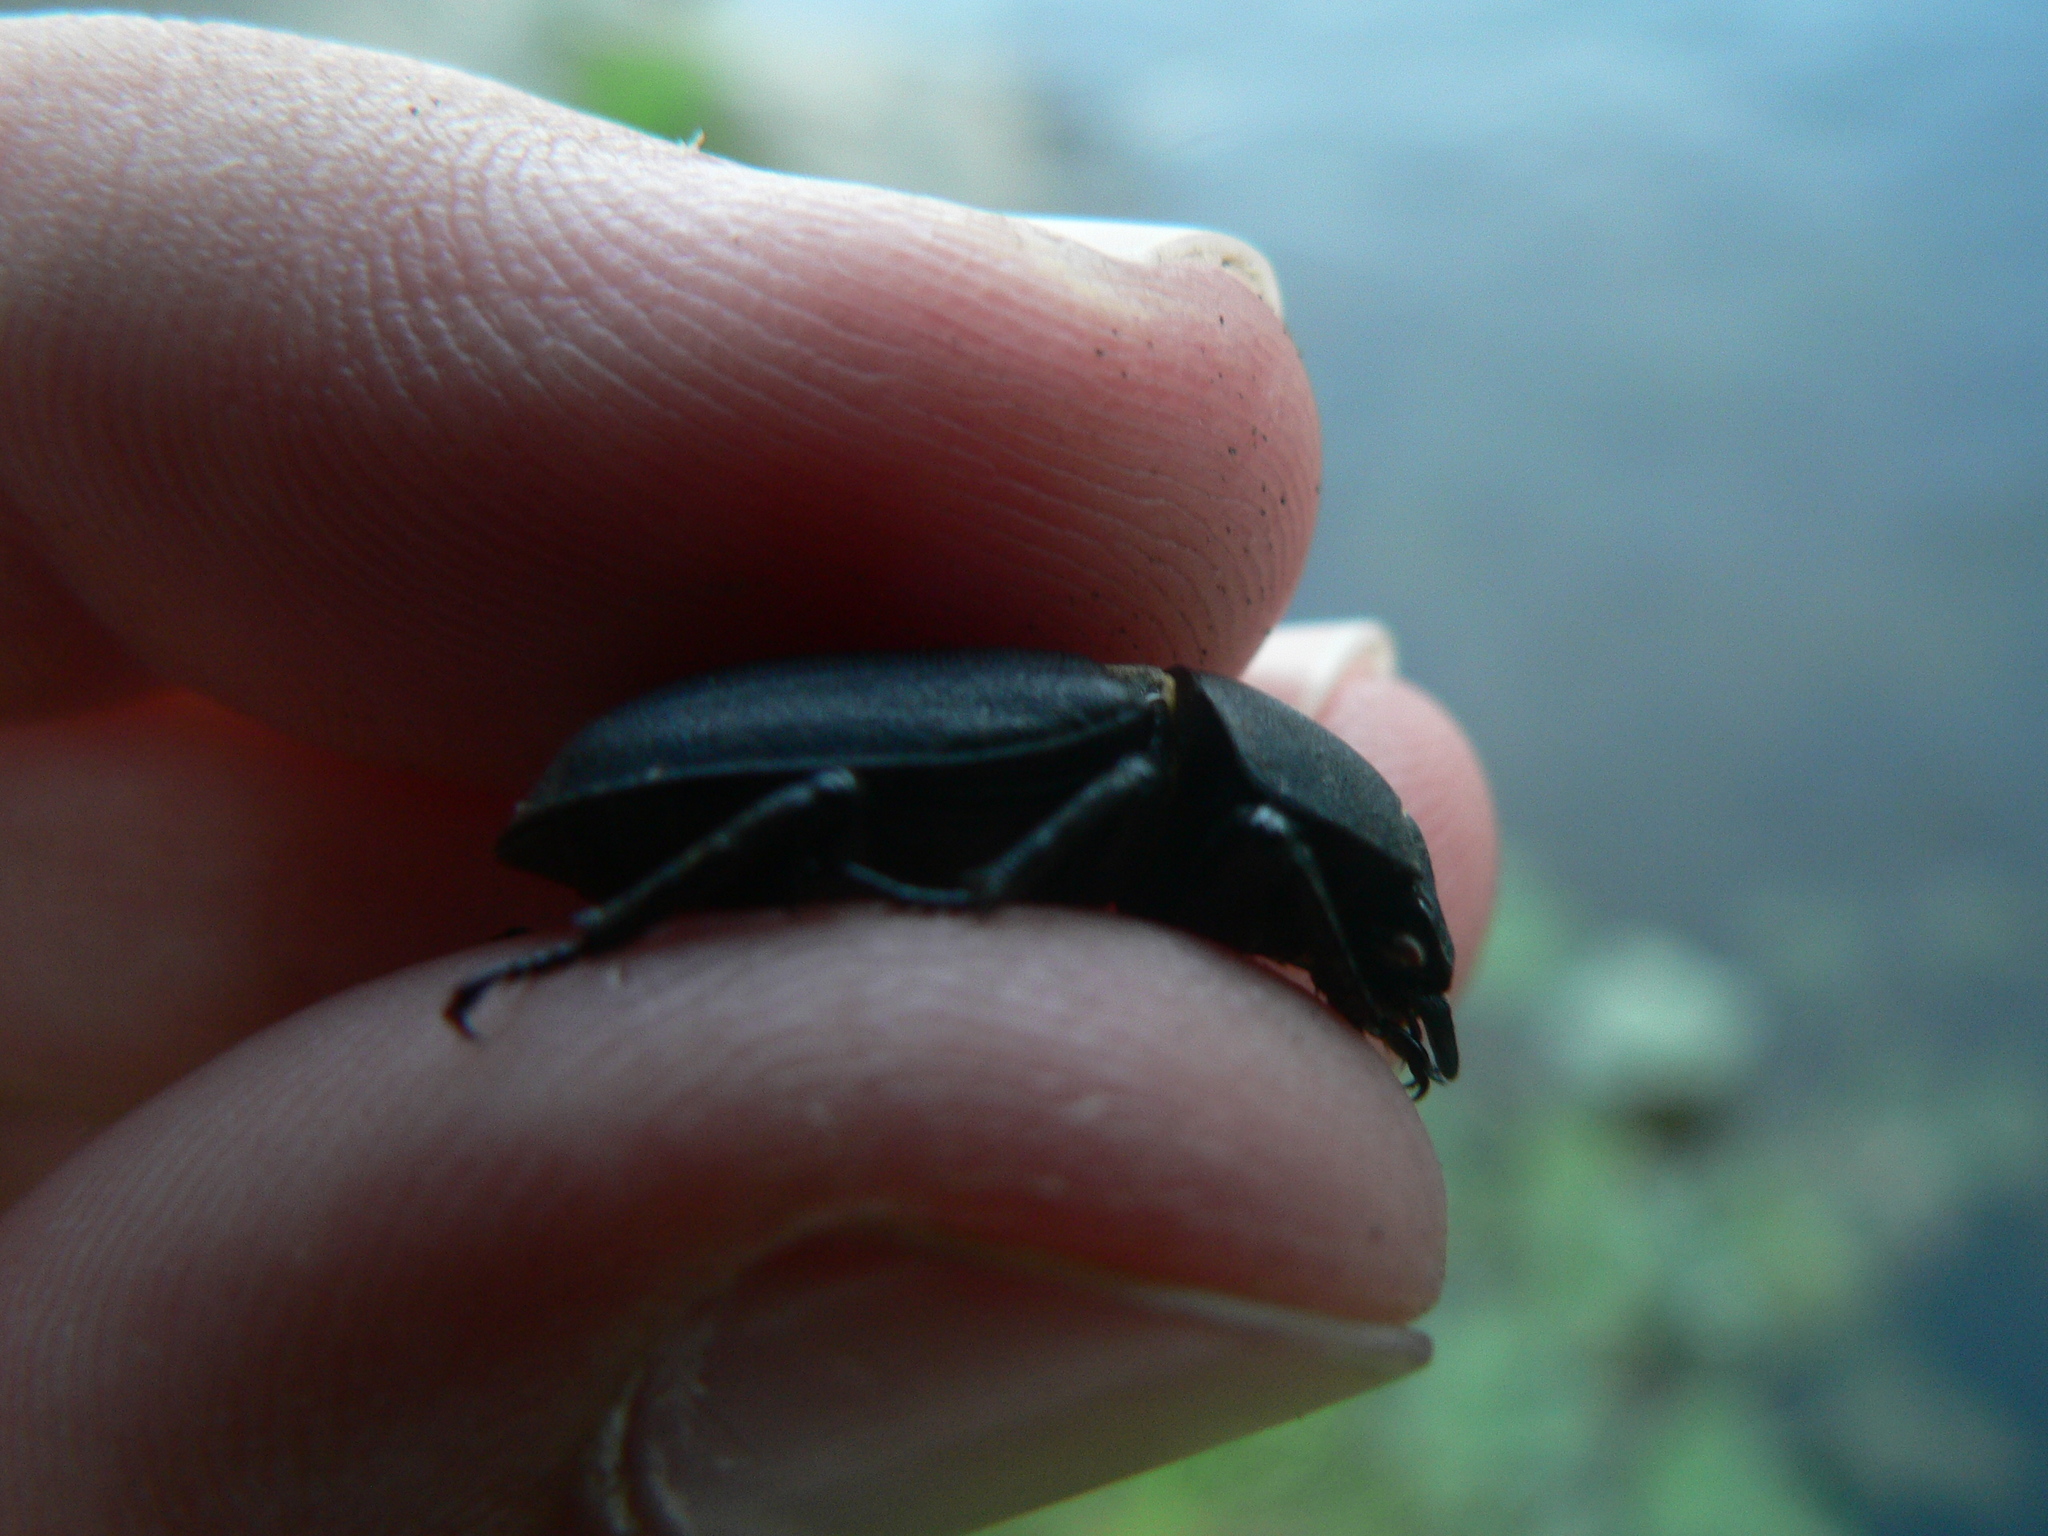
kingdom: Animalia
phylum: Arthropoda
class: Insecta
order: Coleoptera
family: Lucanidae
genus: Dorcus
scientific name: Dorcus parallelipipedus
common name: Lesser stag beetle
